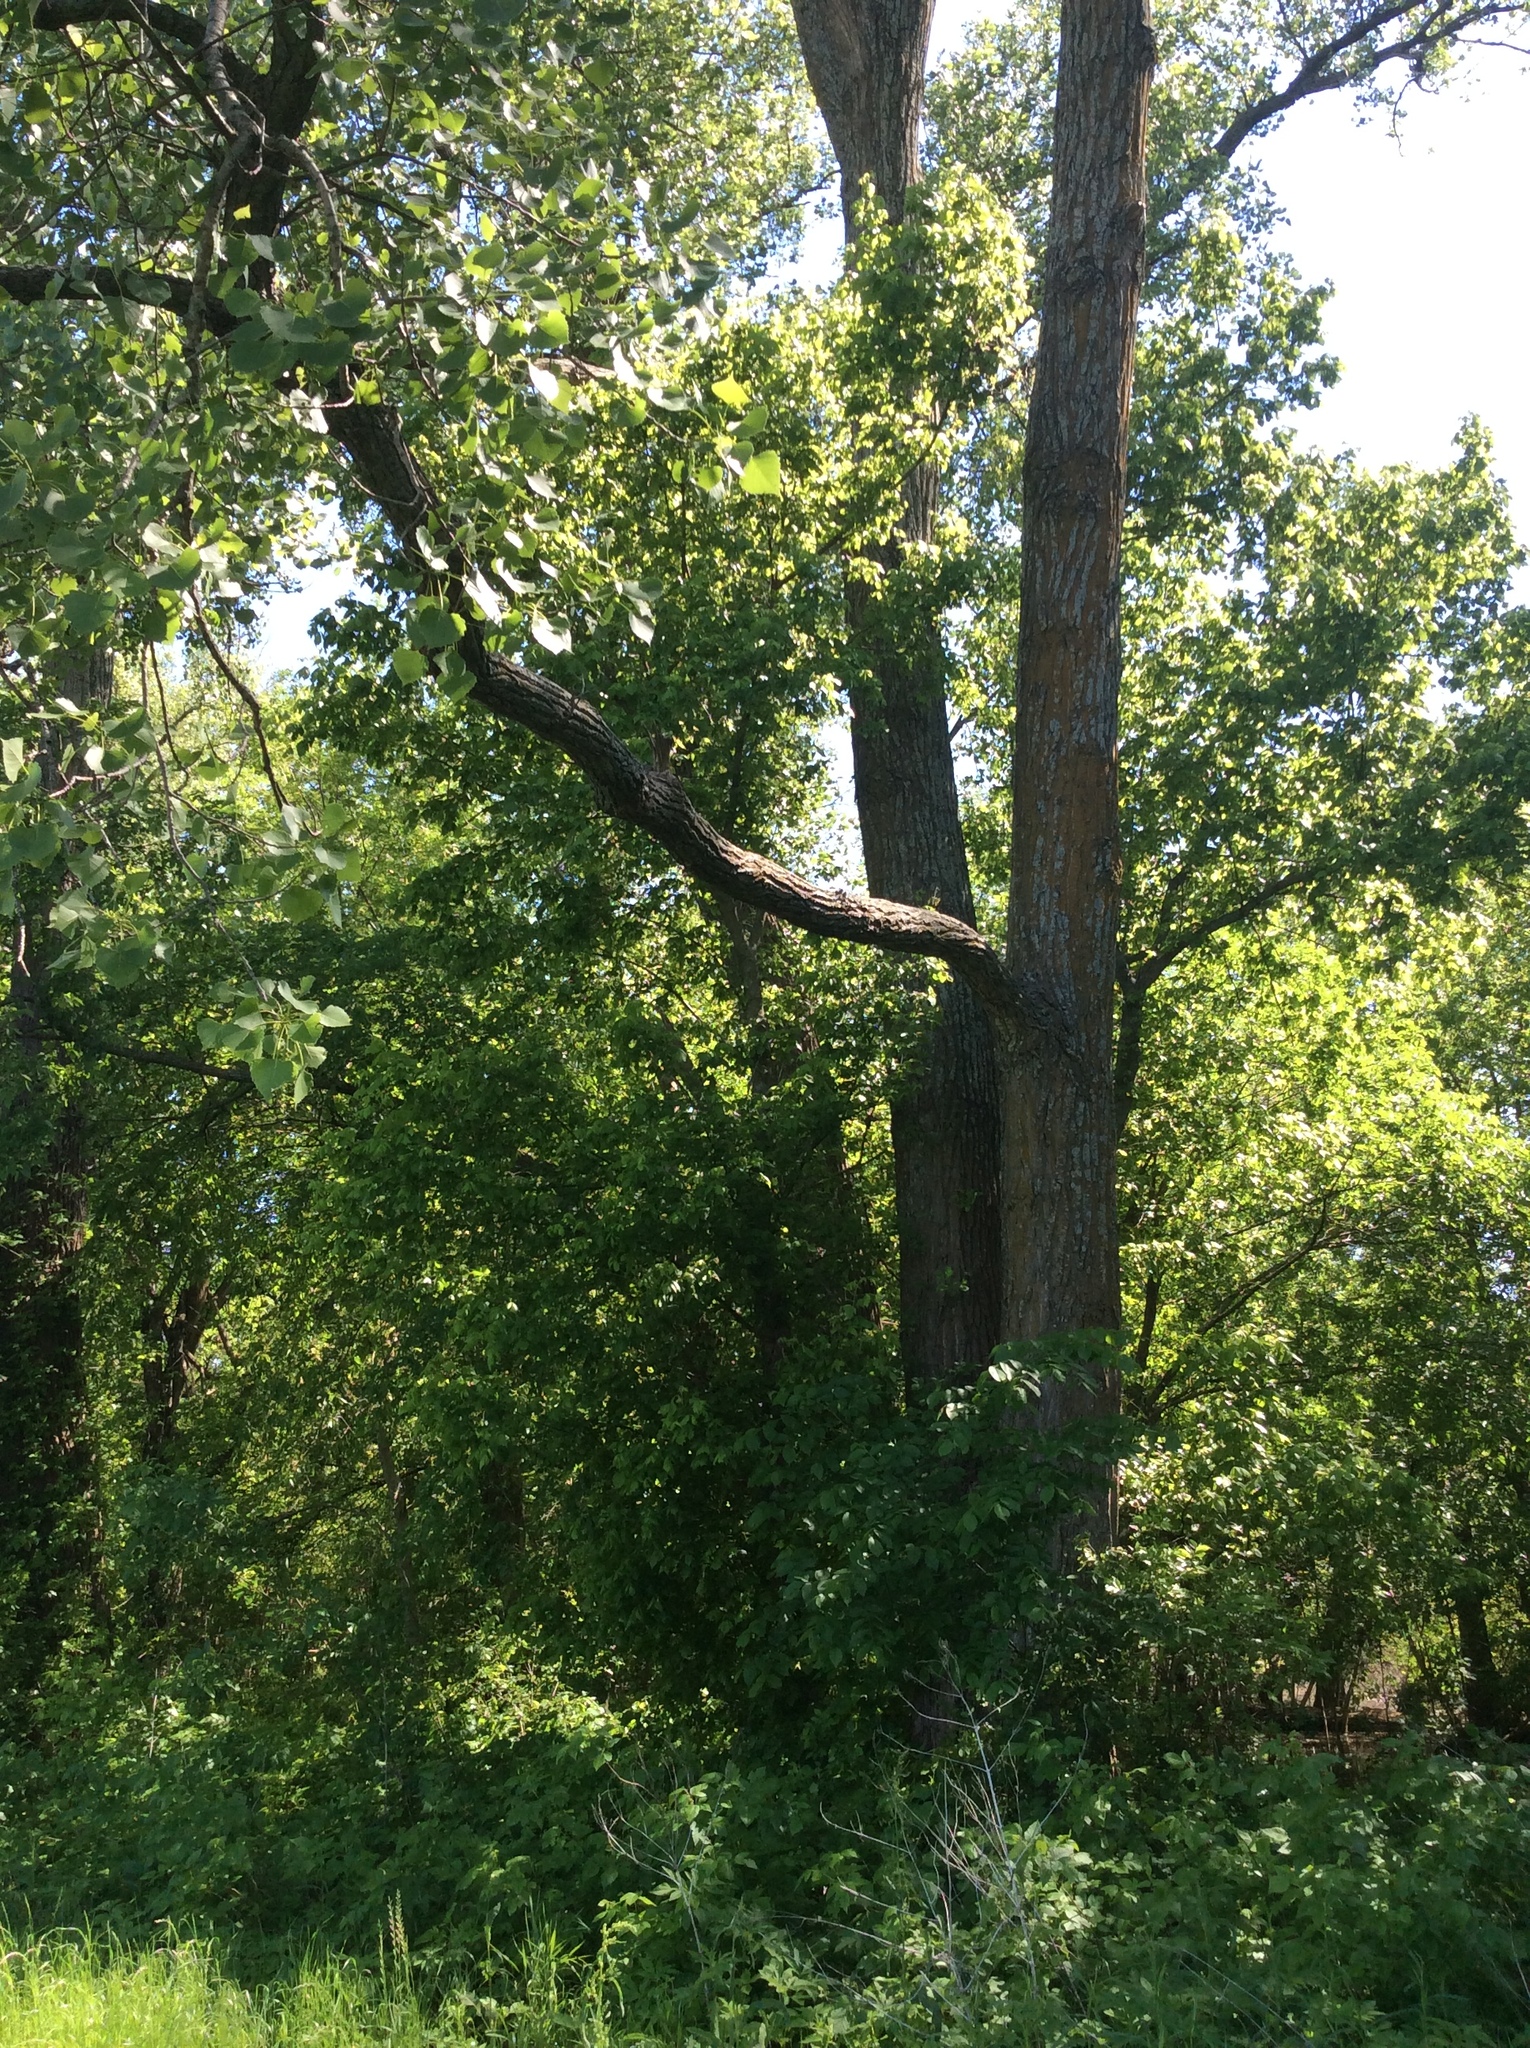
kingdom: Plantae
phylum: Tracheophyta
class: Magnoliopsida
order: Malpighiales
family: Salicaceae
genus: Populus
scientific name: Populus deltoides
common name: Eastern cottonwood
